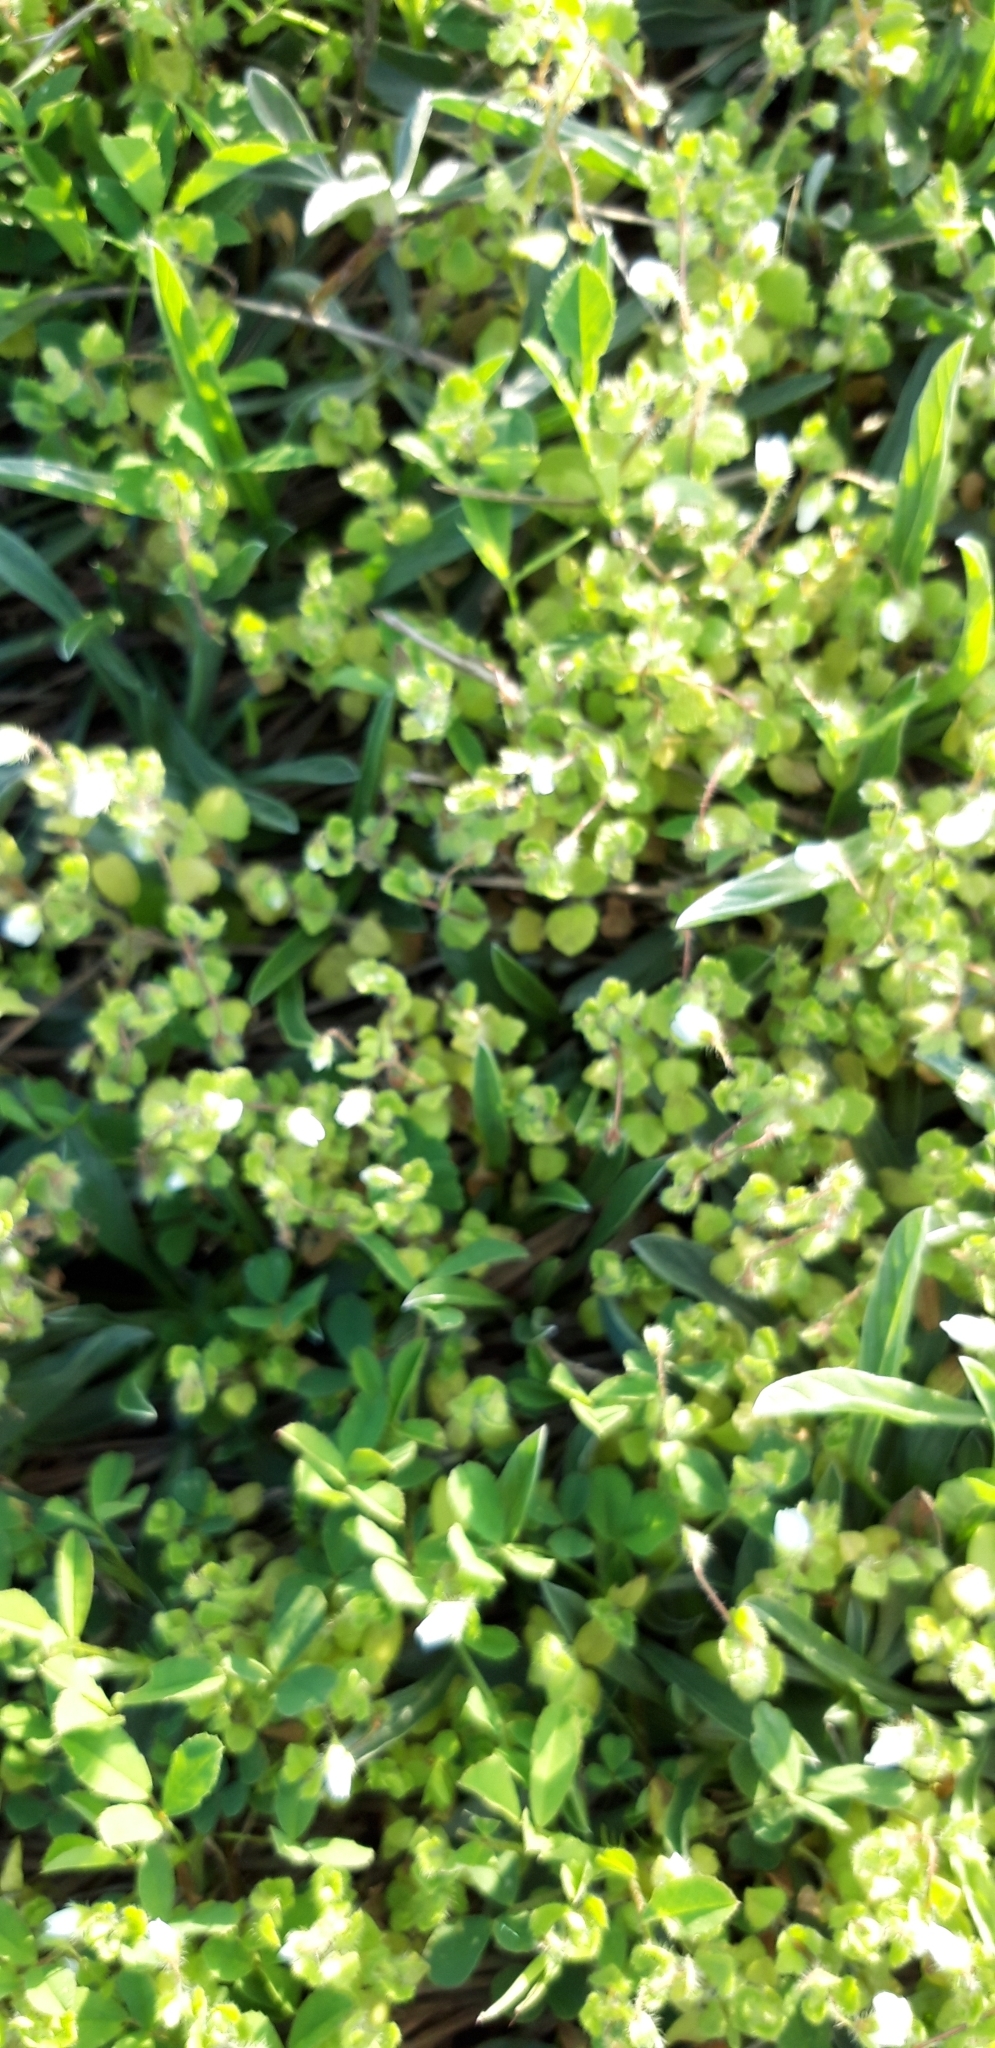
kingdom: Plantae
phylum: Tracheophyta
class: Magnoliopsida
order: Lamiales
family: Plantaginaceae
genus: Veronica
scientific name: Veronica cymbalaria
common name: Pale speedwell
